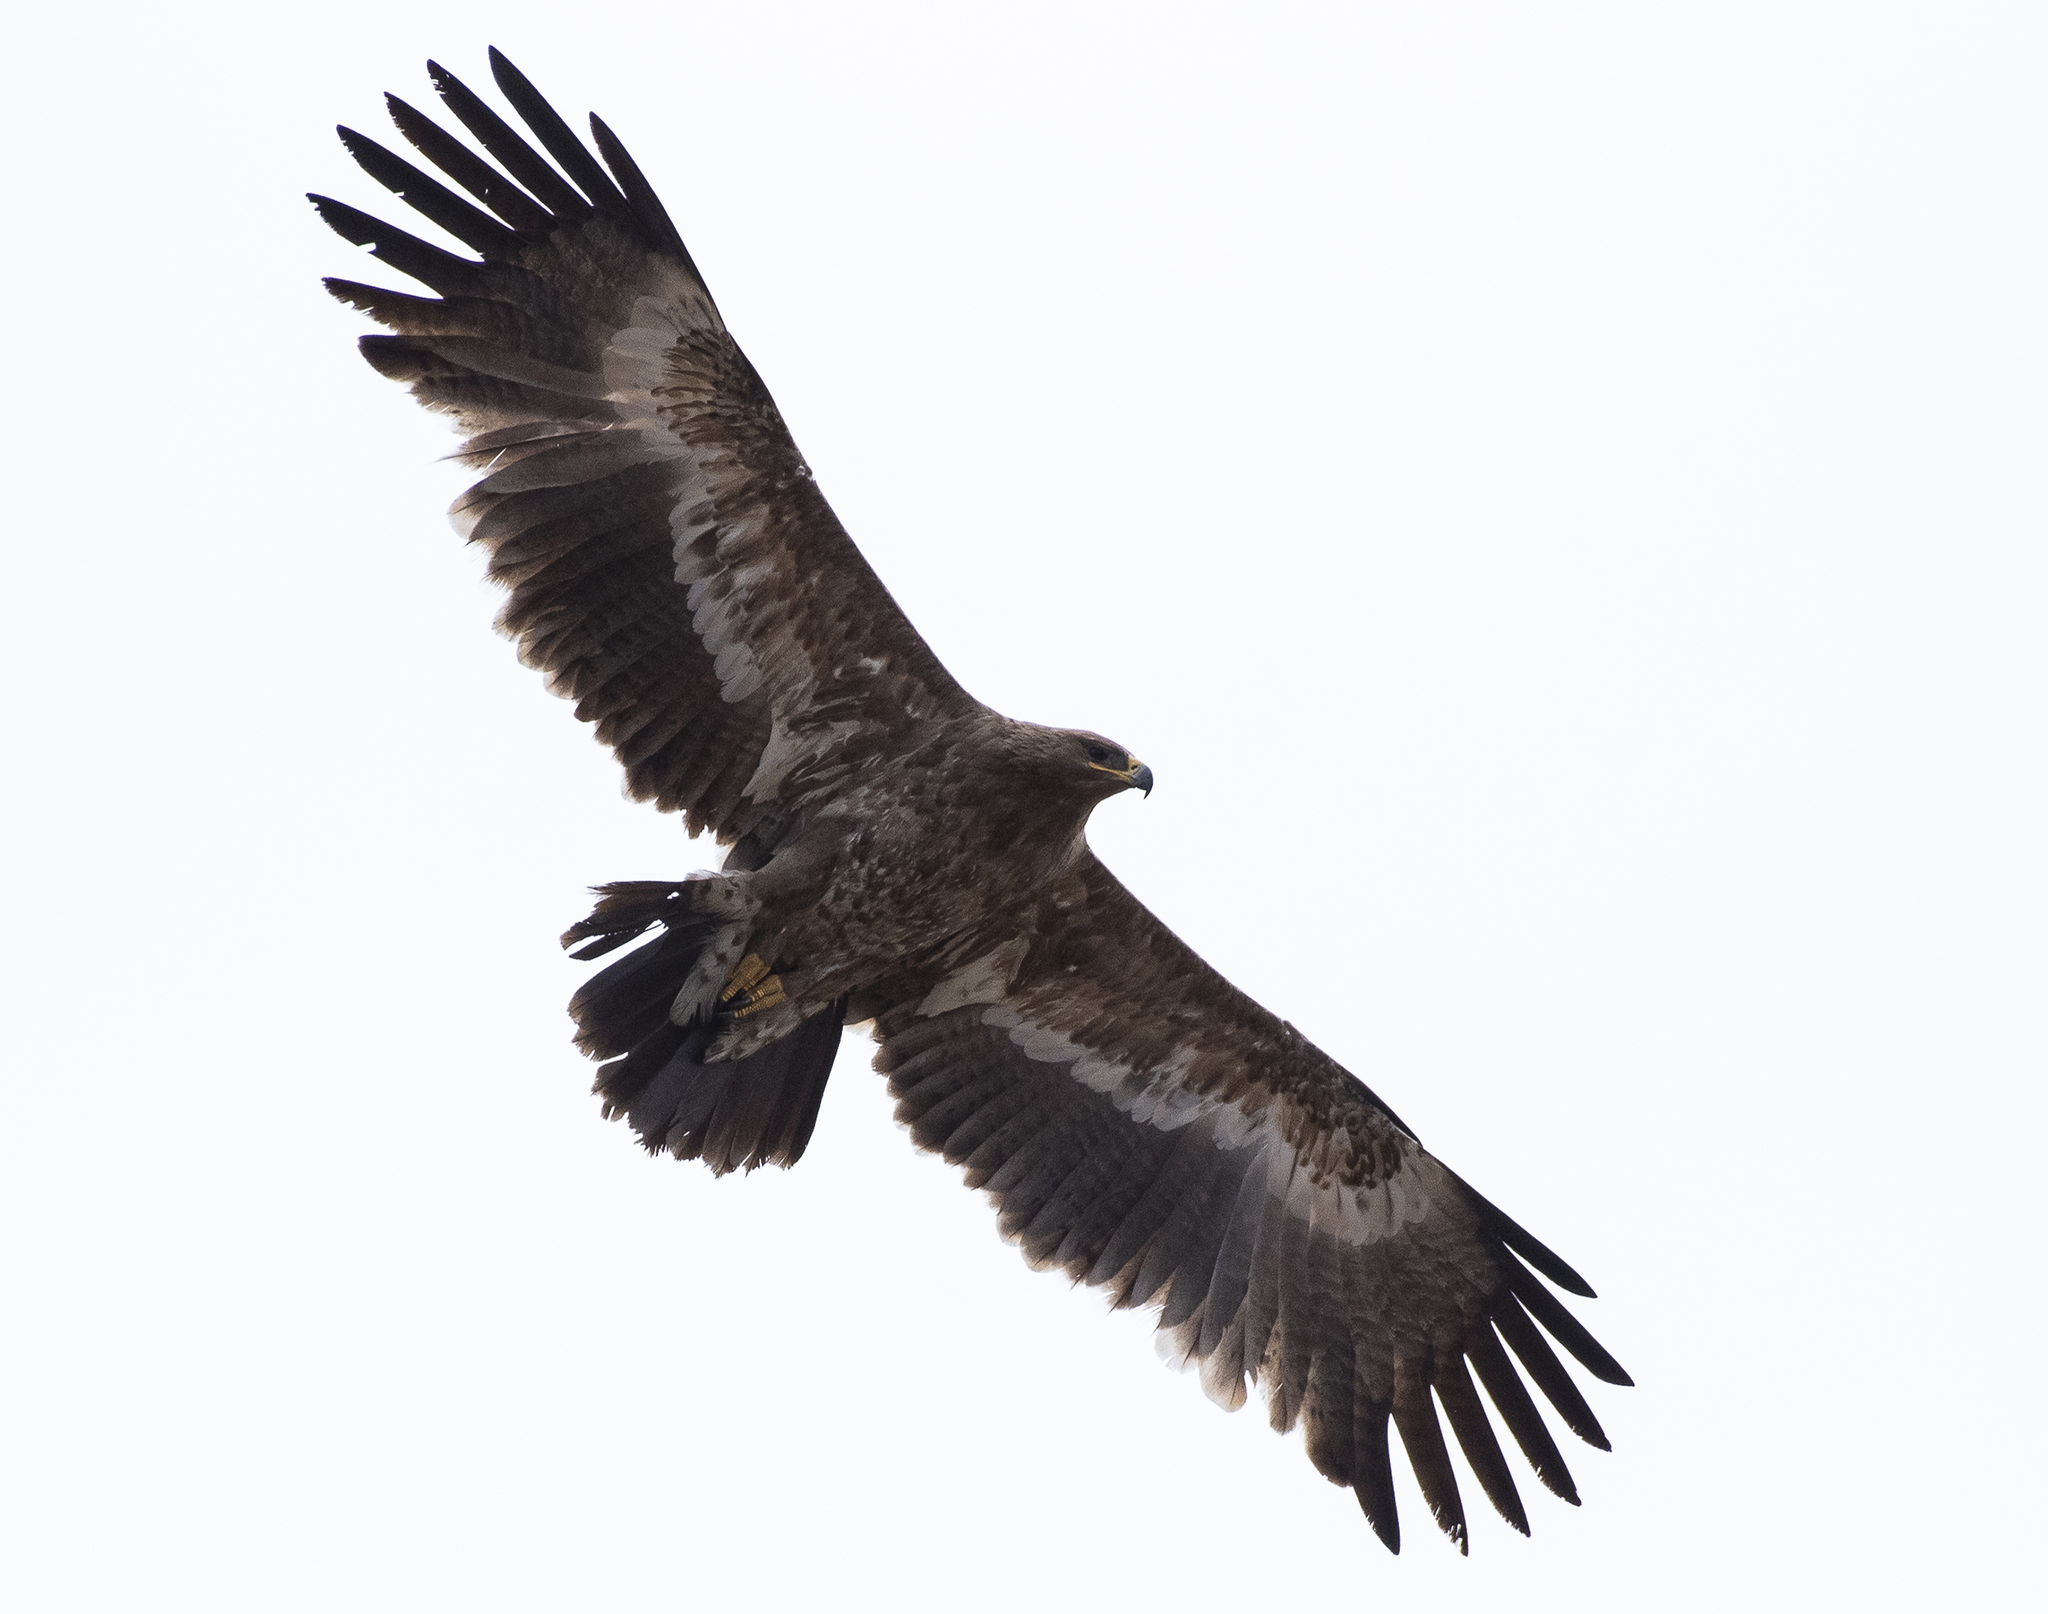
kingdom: Animalia
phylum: Chordata
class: Aves
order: Accipitriformes
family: Accipitridae
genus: Aquila
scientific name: Aquila nipalensis
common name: Steppe eagle
